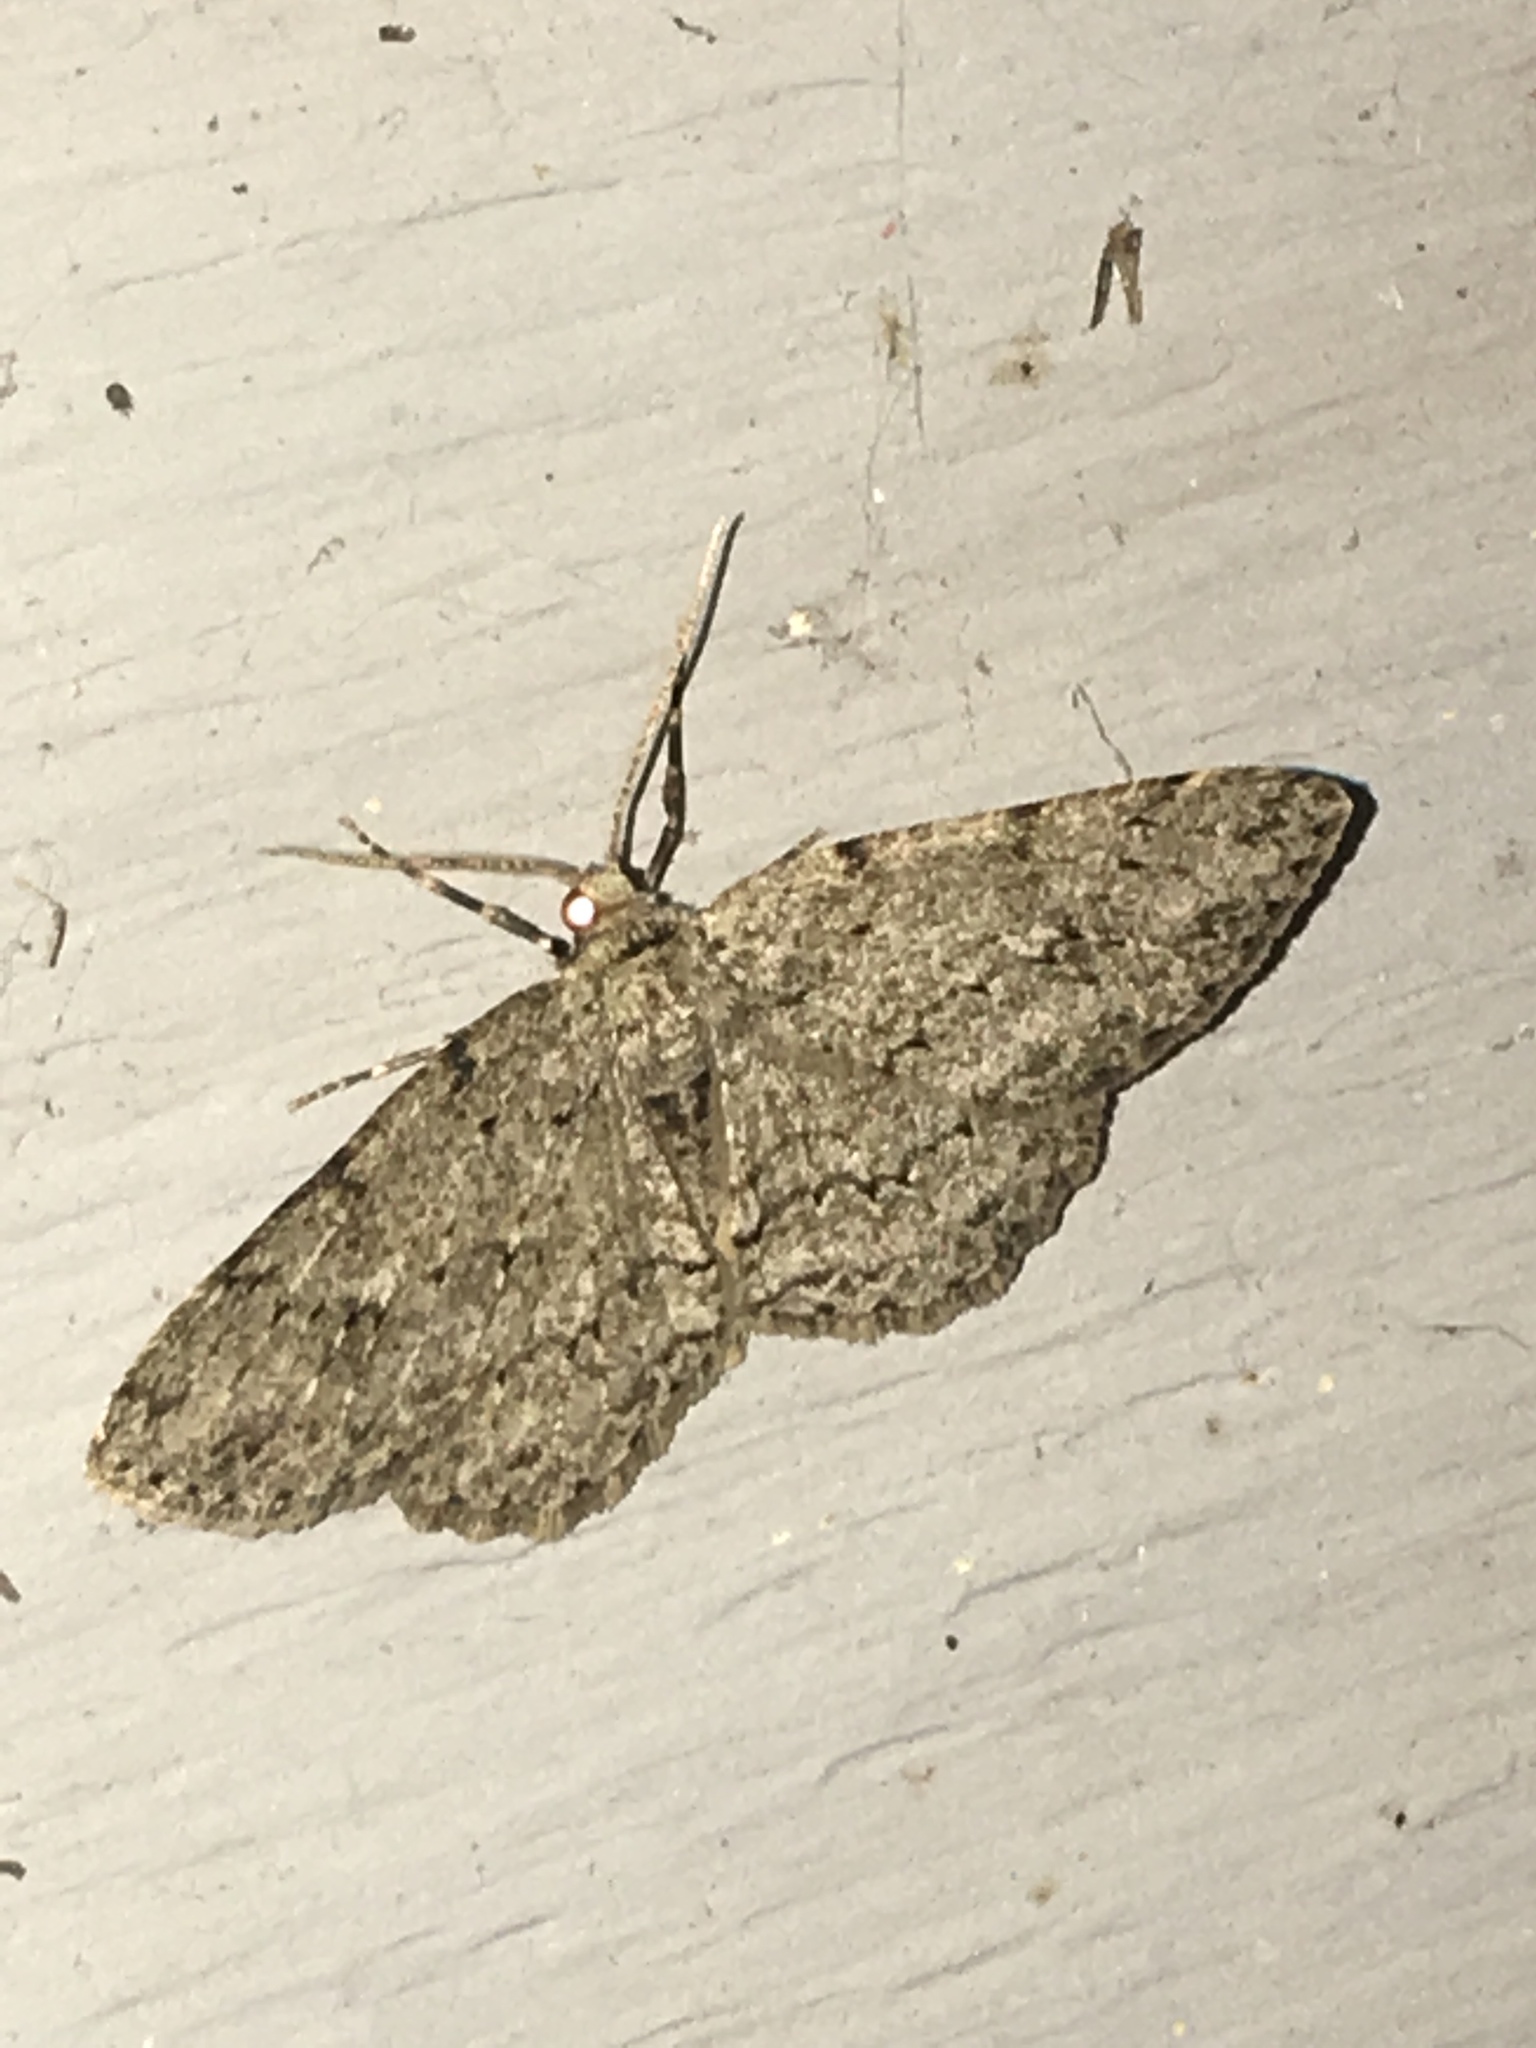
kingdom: Animalia
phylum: Arthropoda
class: Insecta
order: Lepidoptera
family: Geometridae
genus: Ectropis
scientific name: Ectropis crepuscularia
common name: Engrailed
